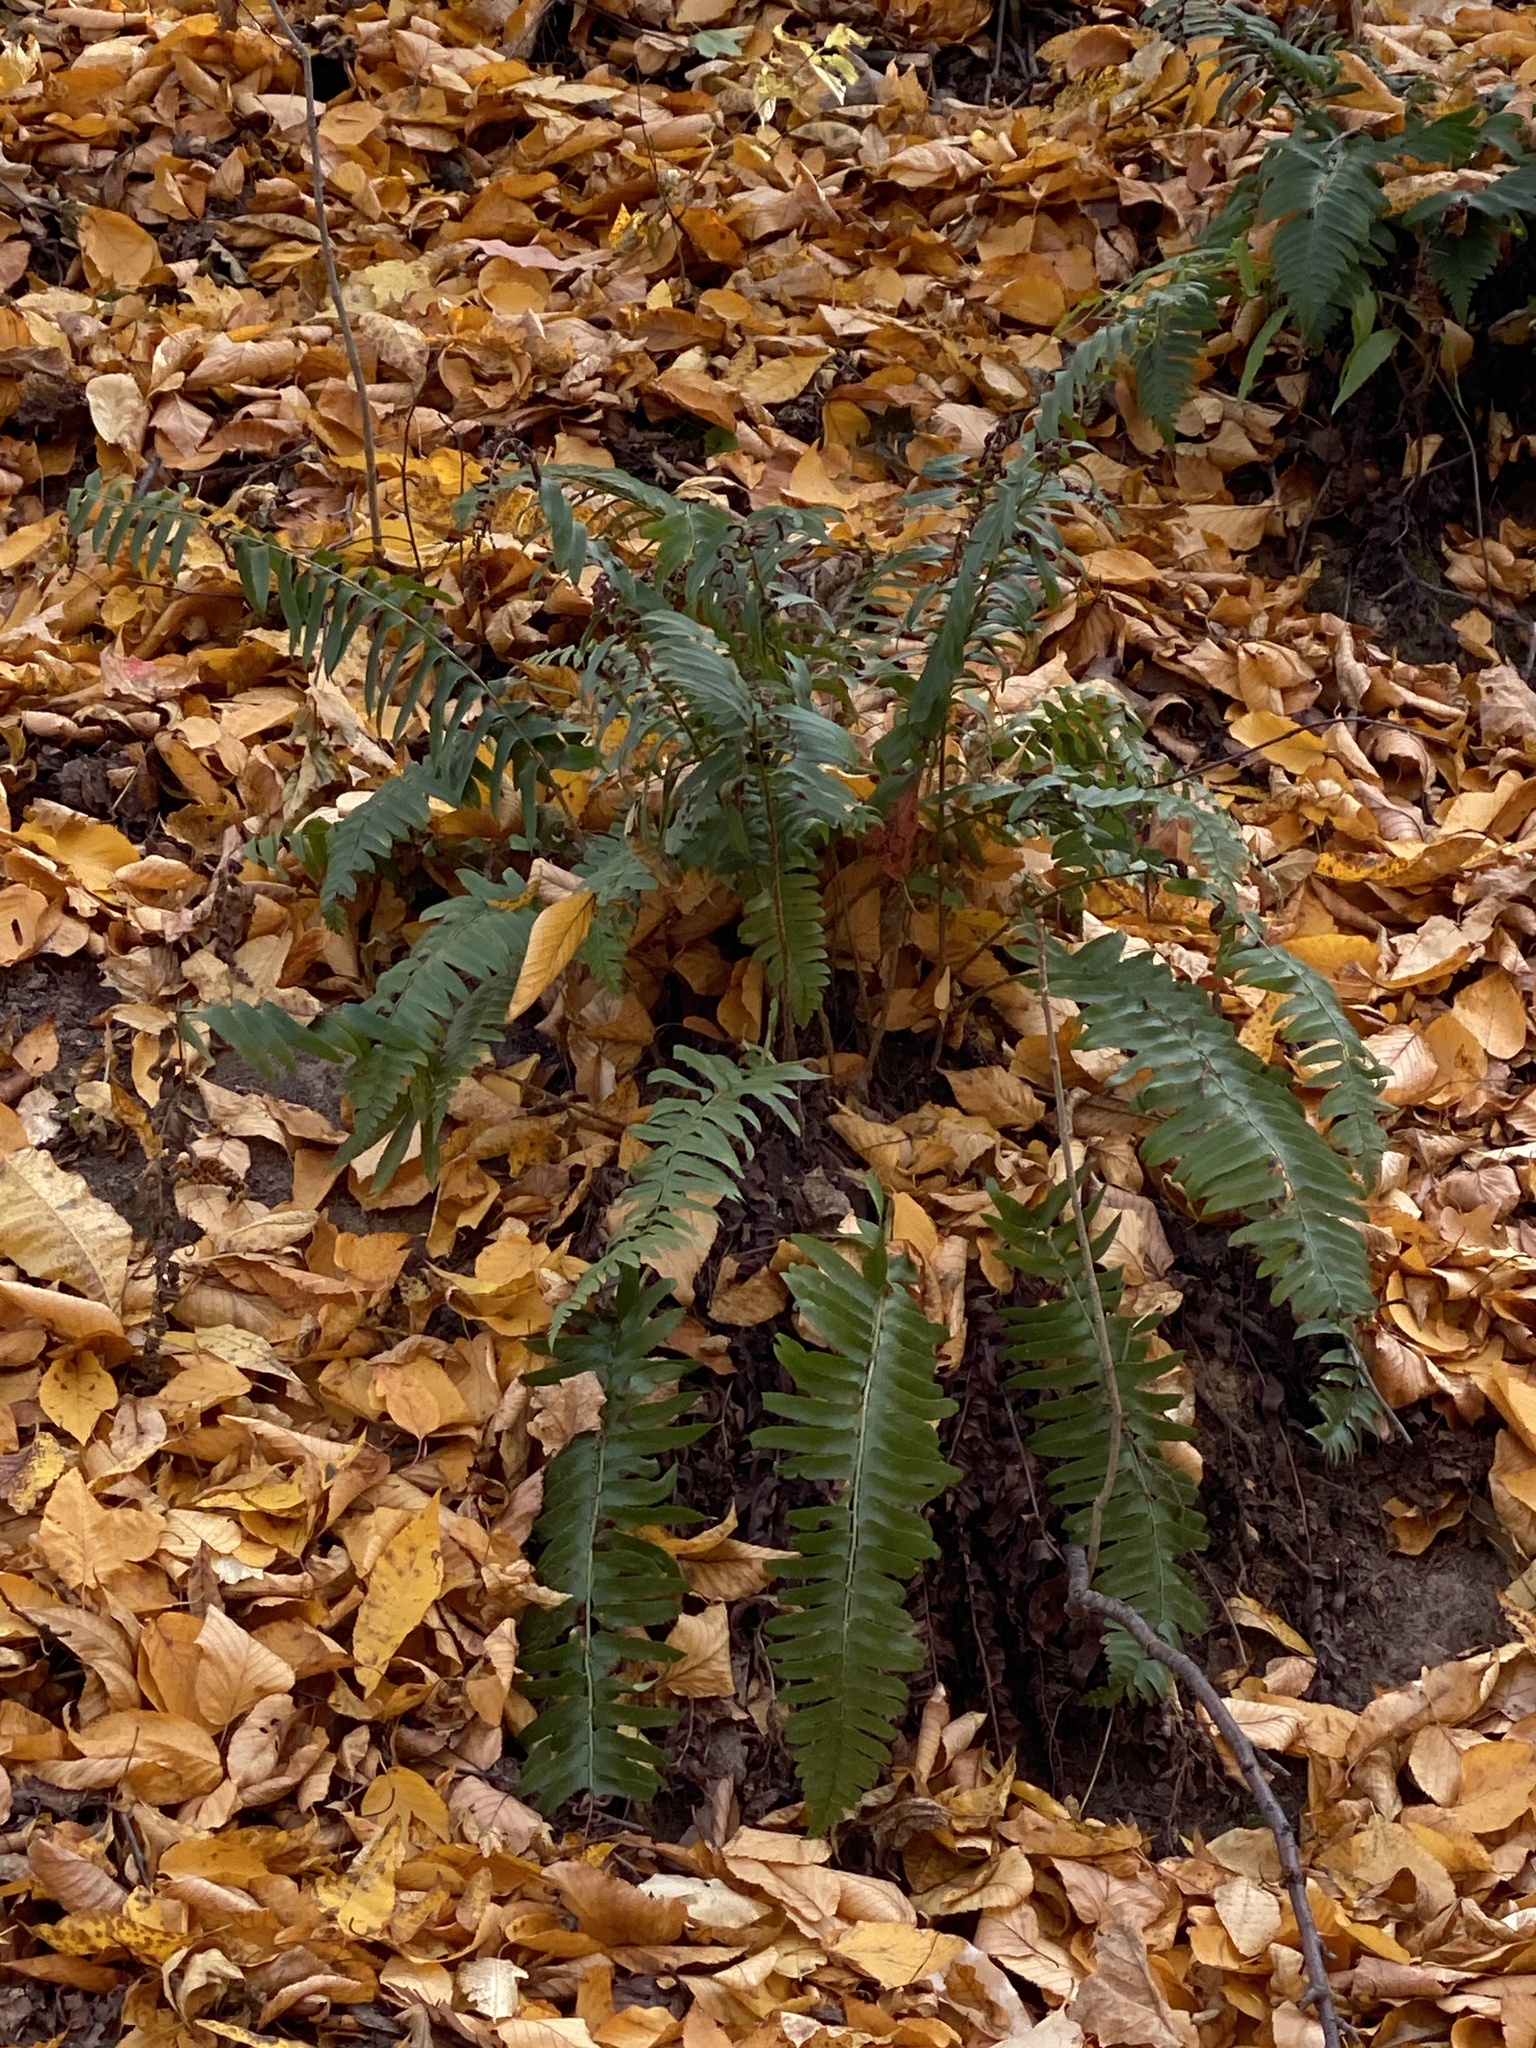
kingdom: Plantae
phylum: Tracheophyta
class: Polypodiopsida
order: Polypodiales
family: Dryopteridaceae
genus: Polystichum
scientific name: Polystichum acrostichoides
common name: Christmas fern
